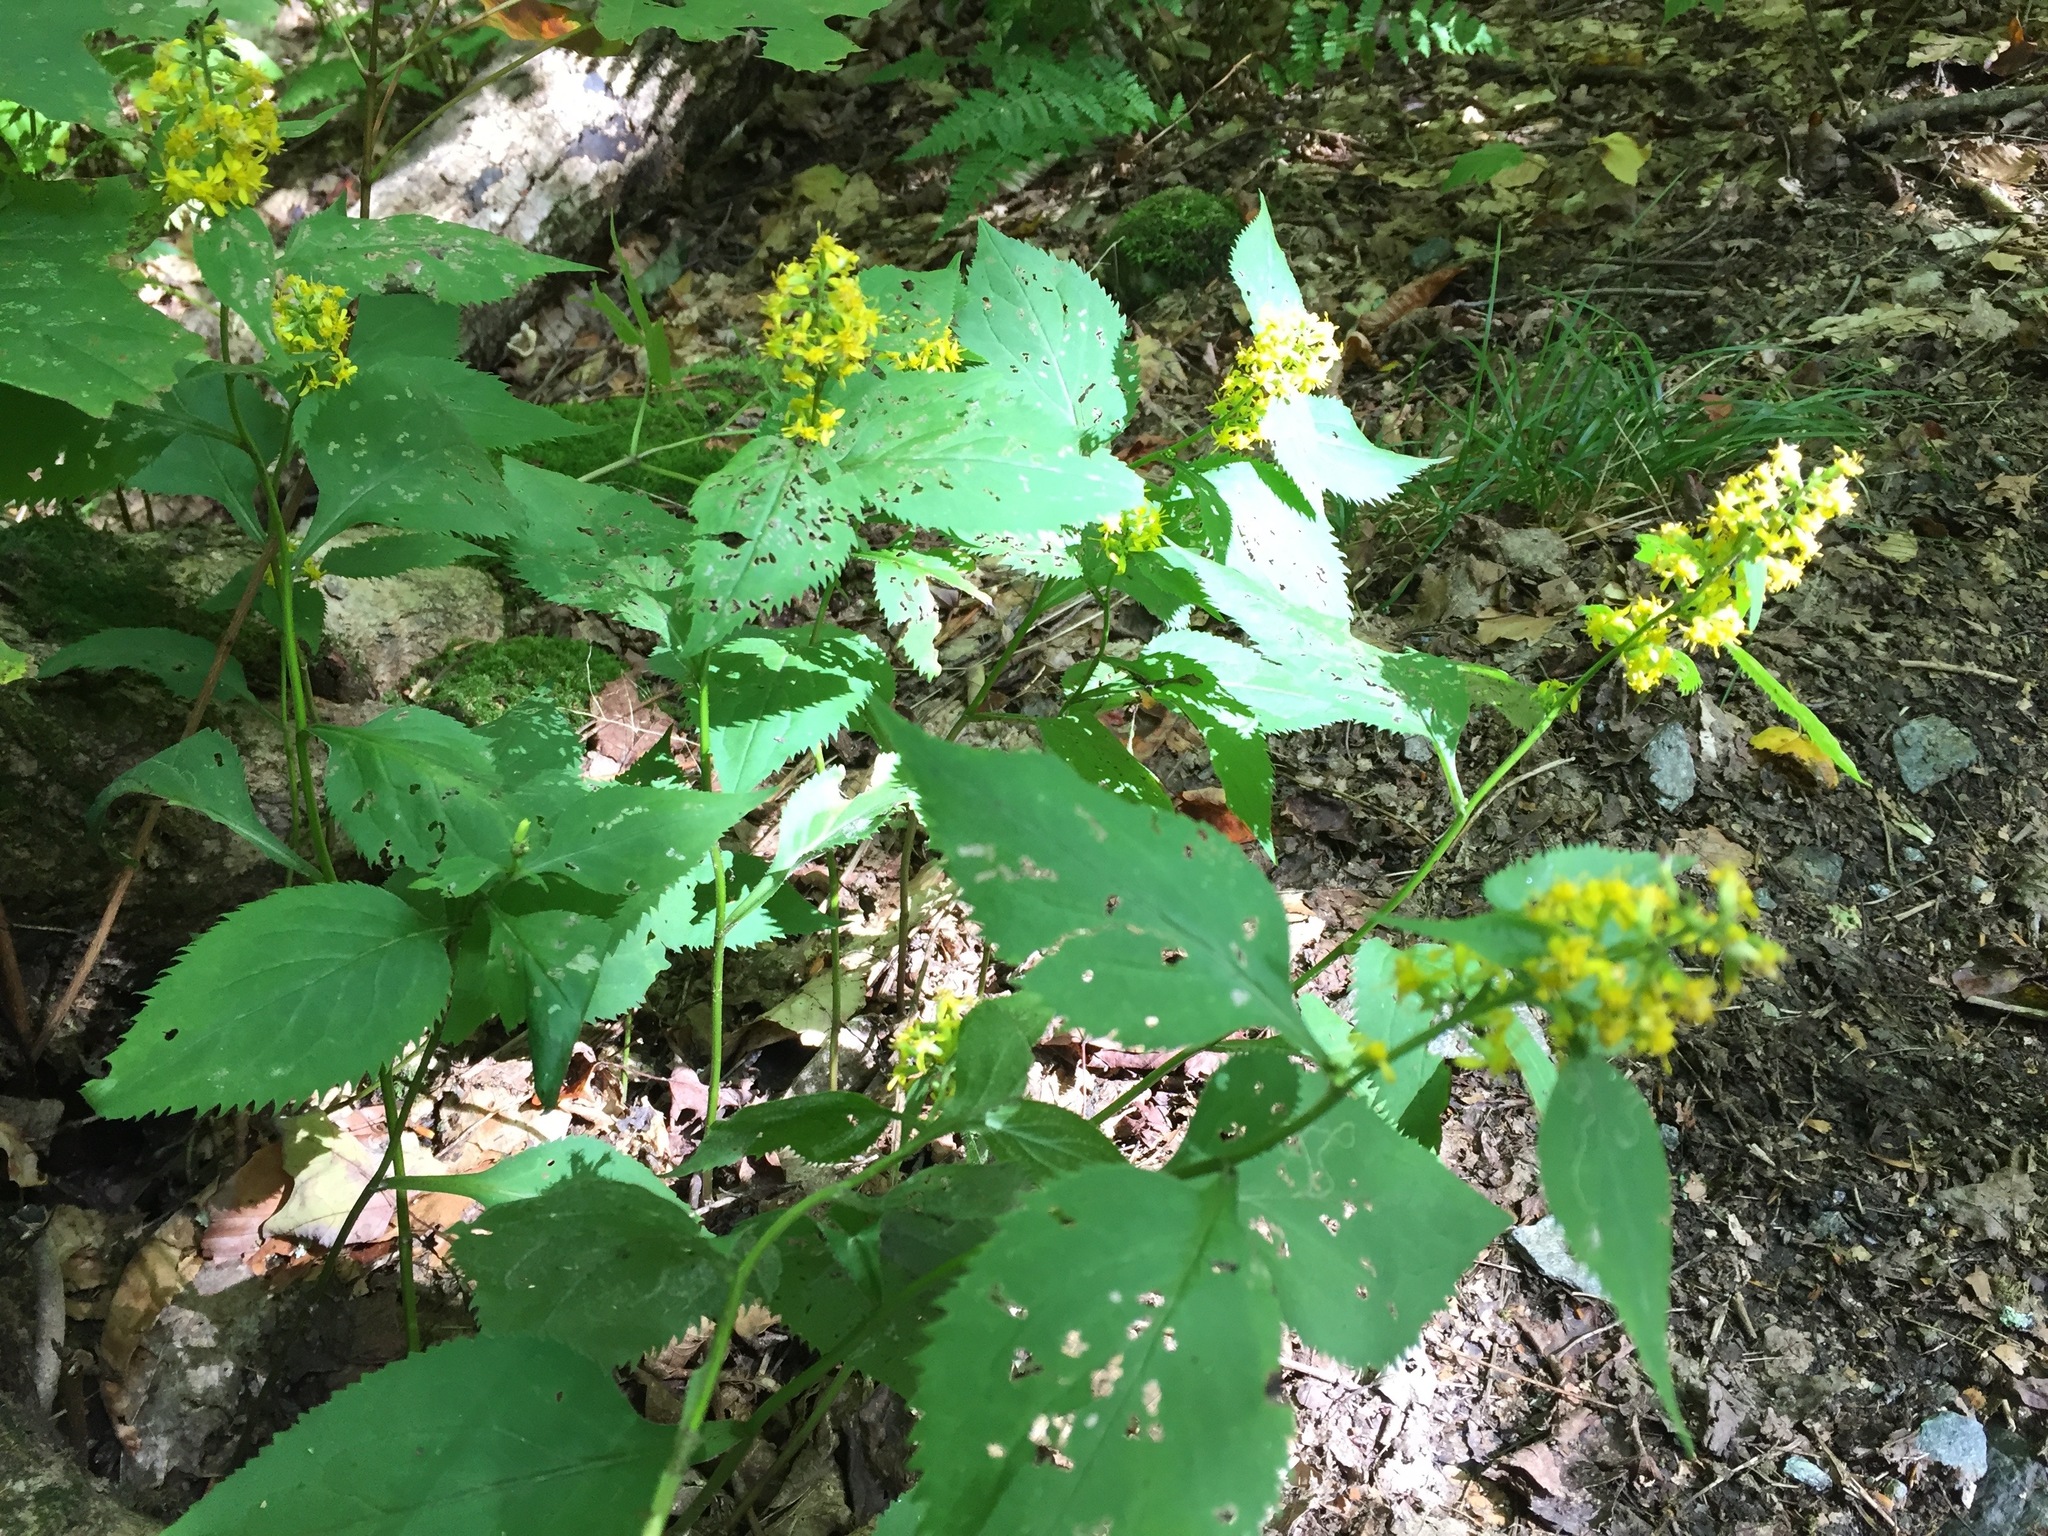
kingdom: Plantae
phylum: Tracheophyta
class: Magnoliopsida
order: Asterales
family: Asteraceae
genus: Solidago
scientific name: Solidago flexicaulis
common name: Zig-zag goldenrod
